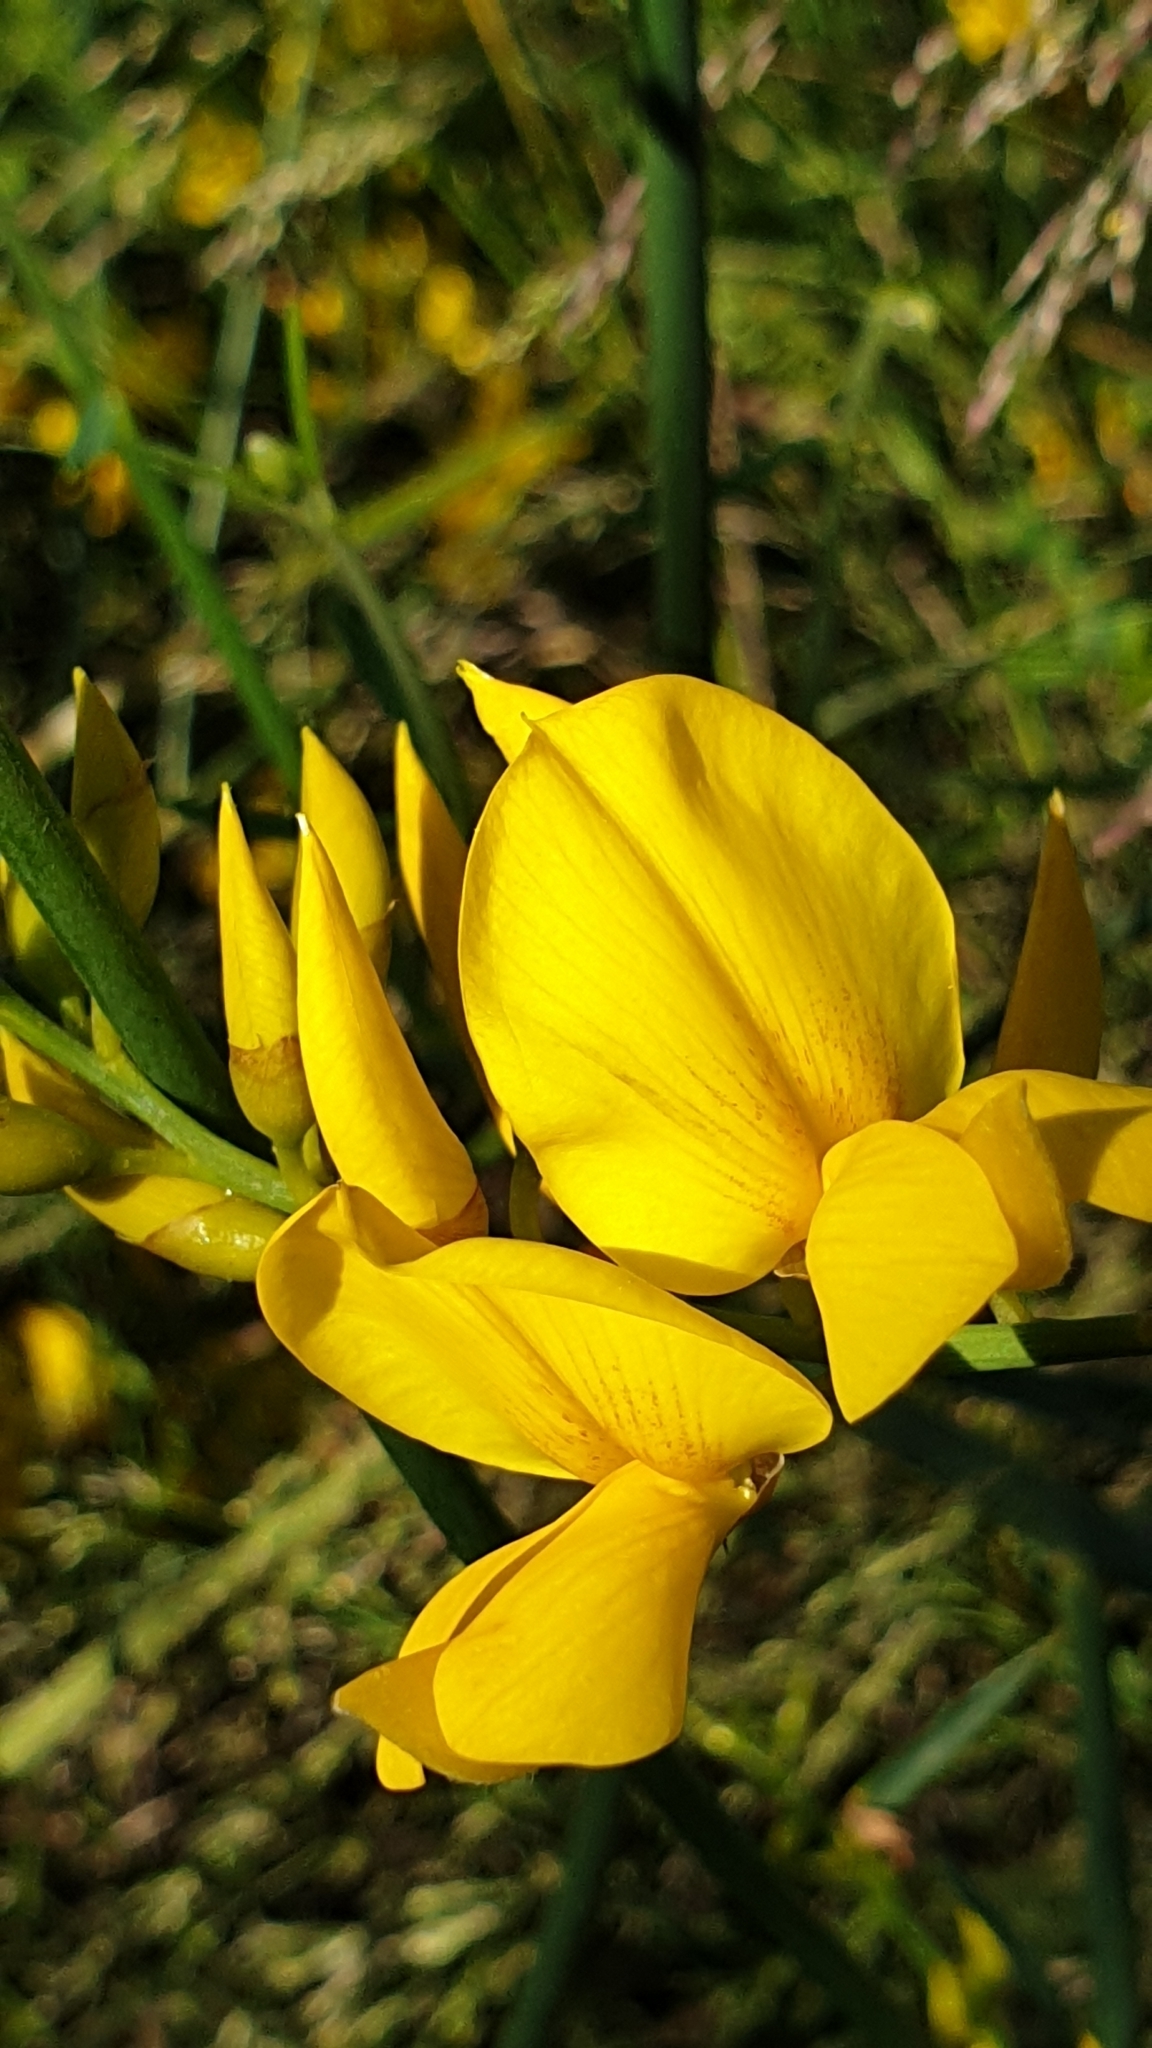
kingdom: Plantae
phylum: Tracheophyta
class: Magnoliopsida
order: Fabales
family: Fabaceae
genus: Spartium
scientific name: Spartium junceum
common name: Spanish broom
